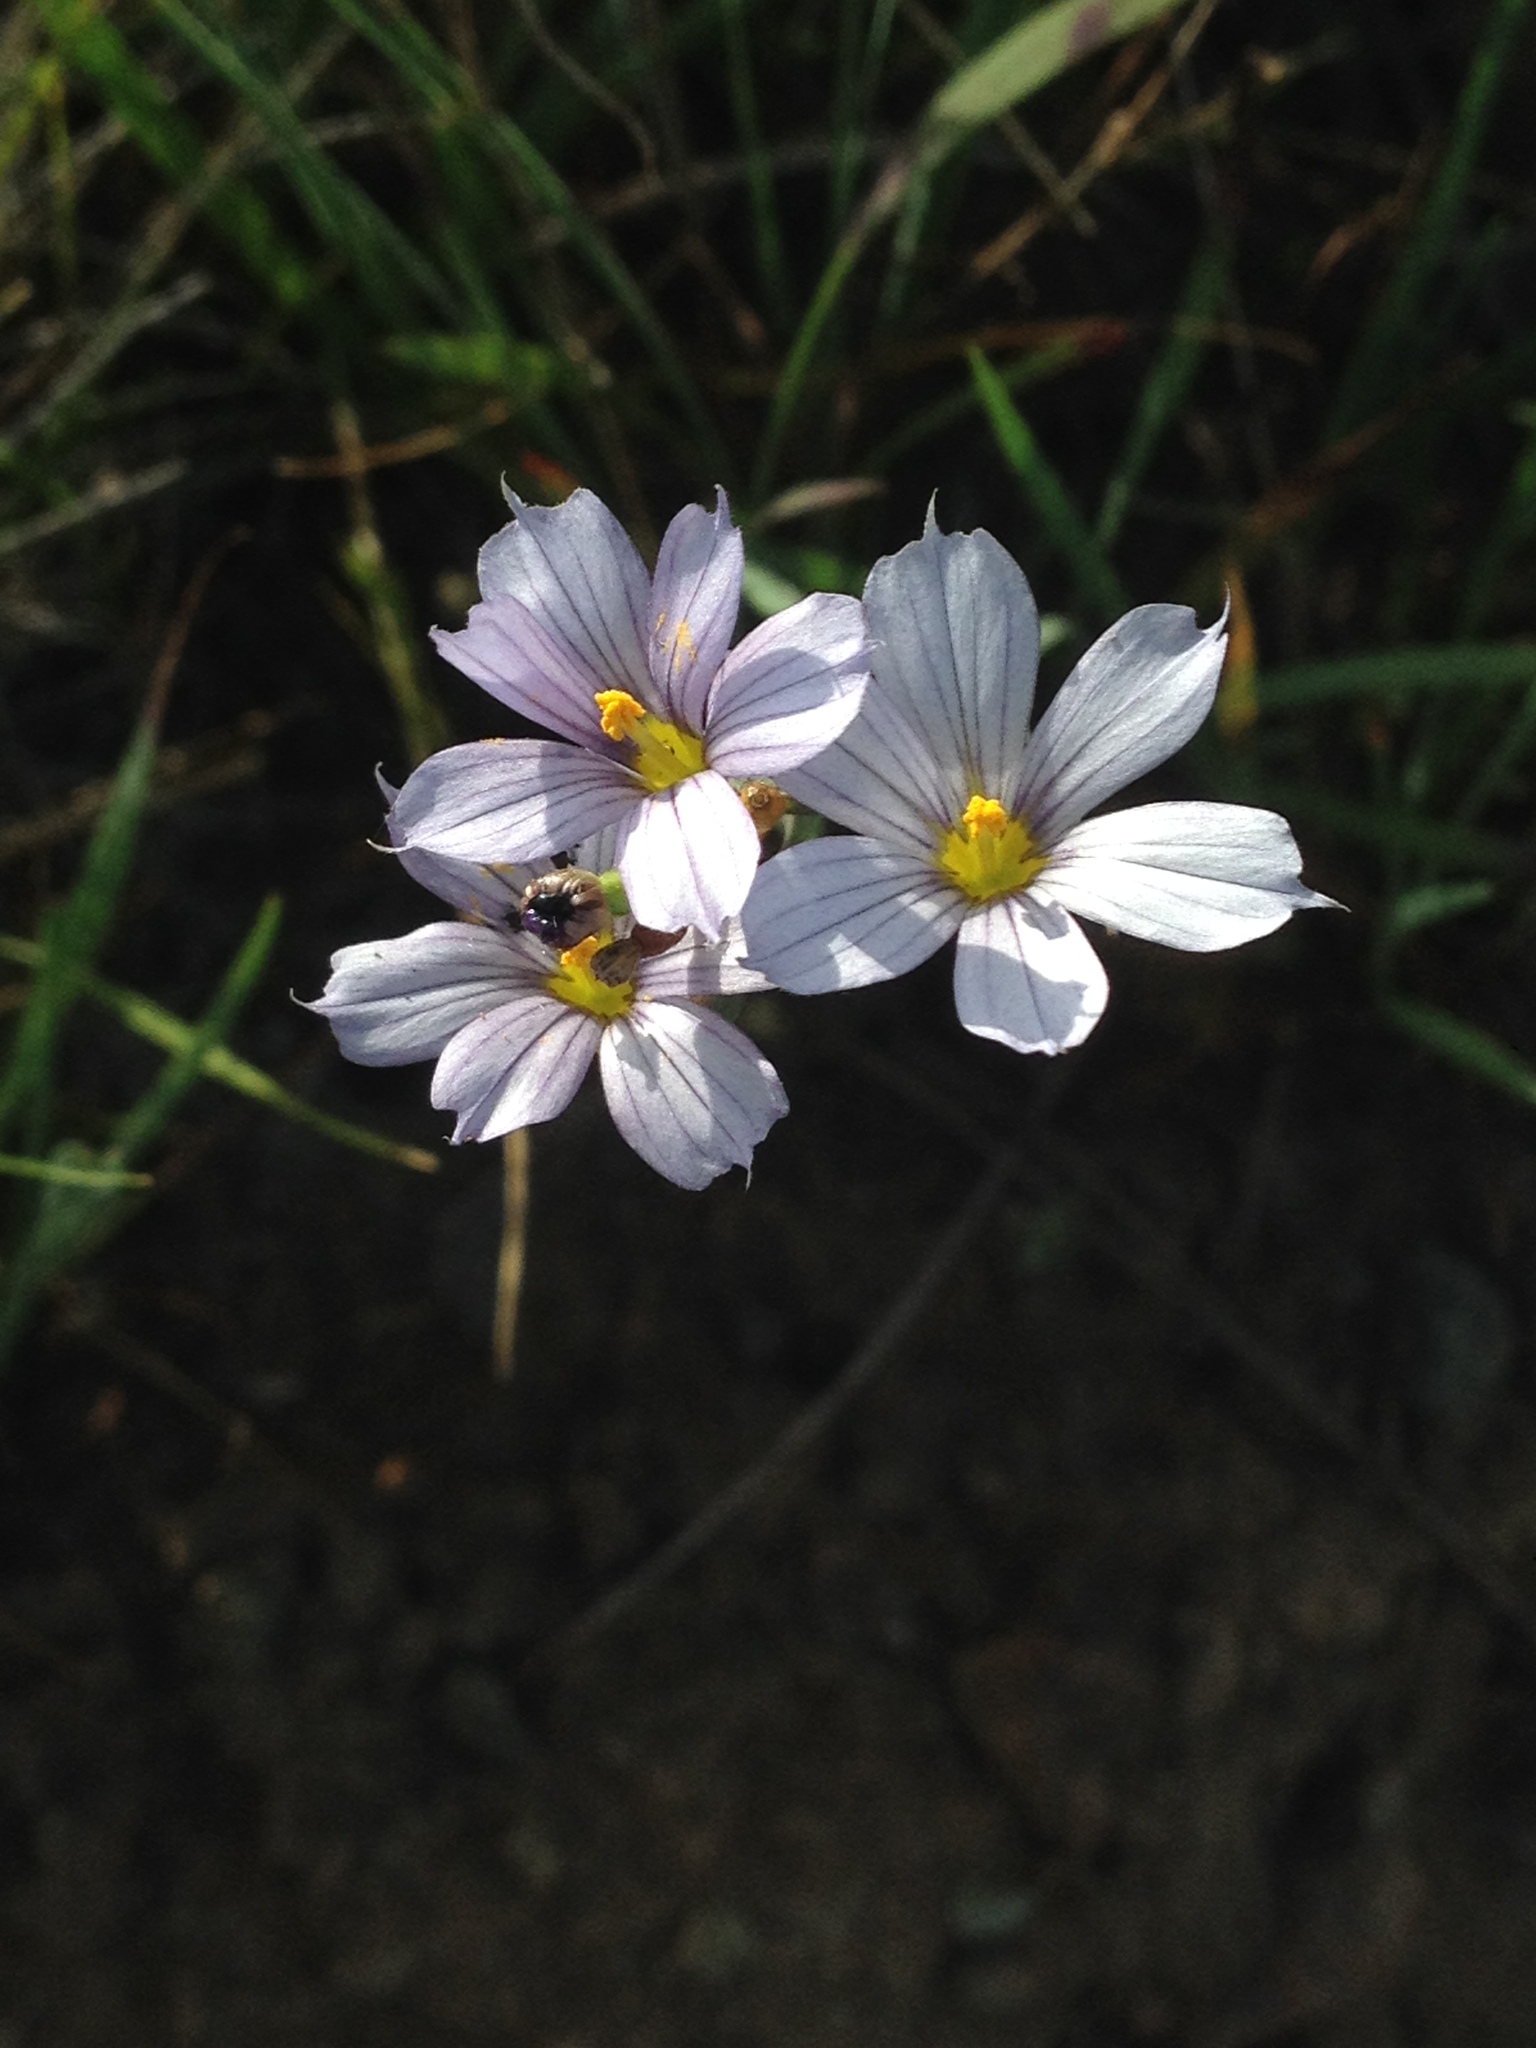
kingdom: Plantae
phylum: Tracheophyta
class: Liliopsida
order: Asparagales
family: Iridaceae
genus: Sisyrinchium
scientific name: Sisyrinchium bellum
